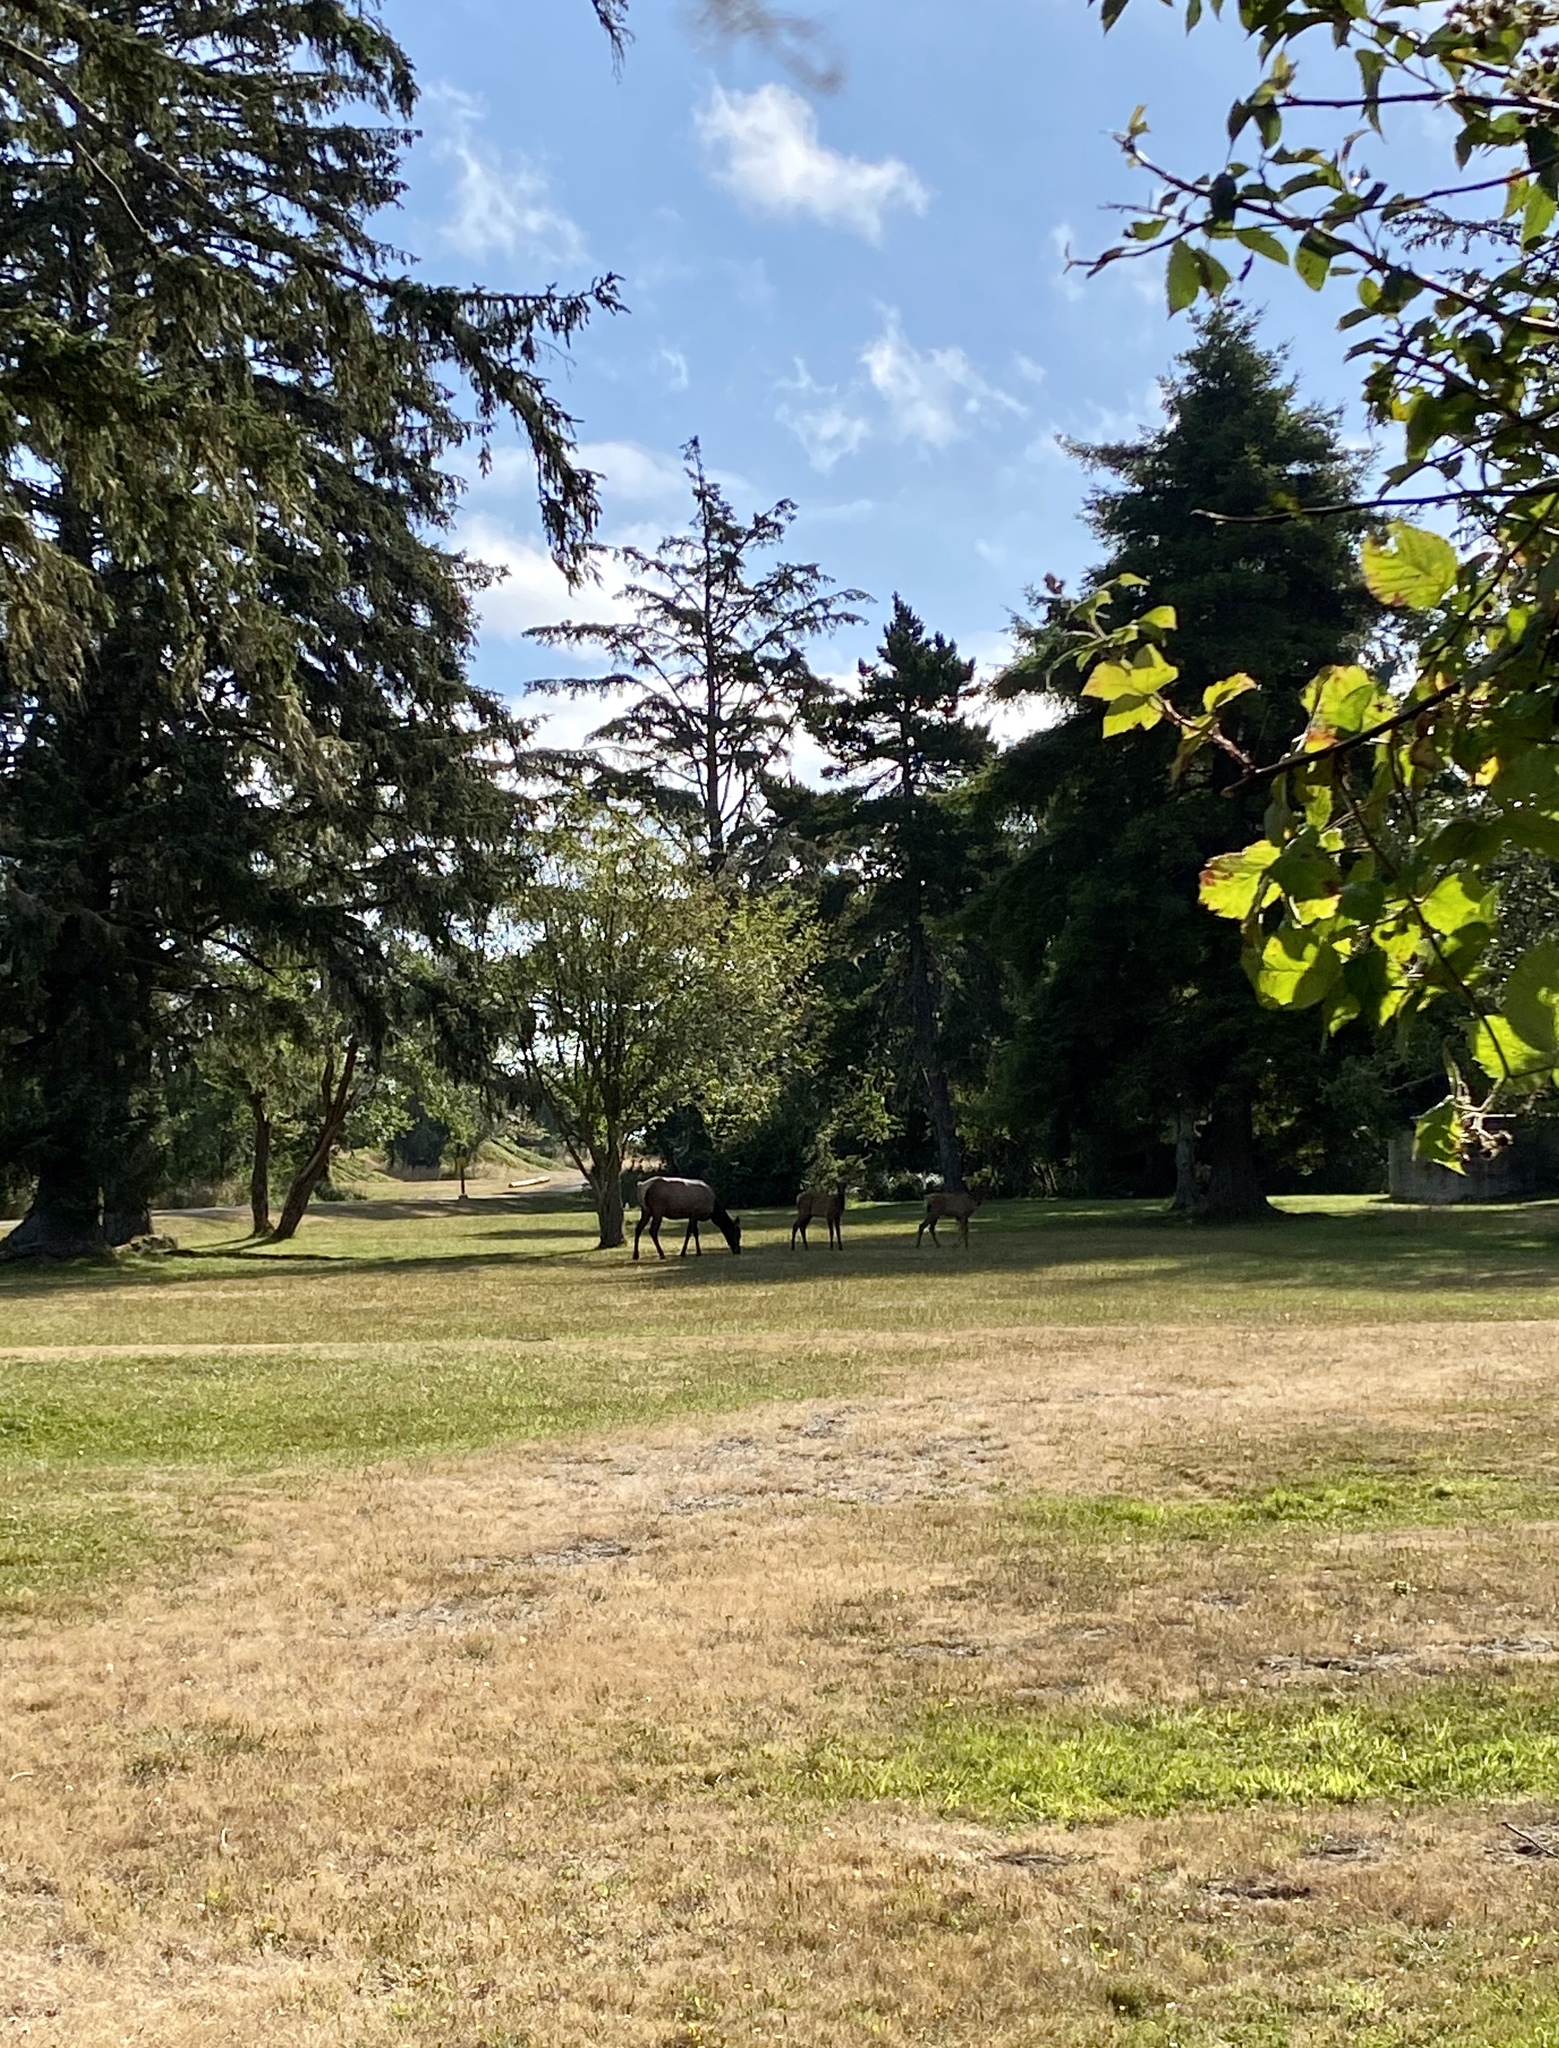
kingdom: Animalia
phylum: Chordata
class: Mammalia
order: Artiodactyla
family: Cervidae
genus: Cervus
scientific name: Cervus elaphus
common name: Red deer
